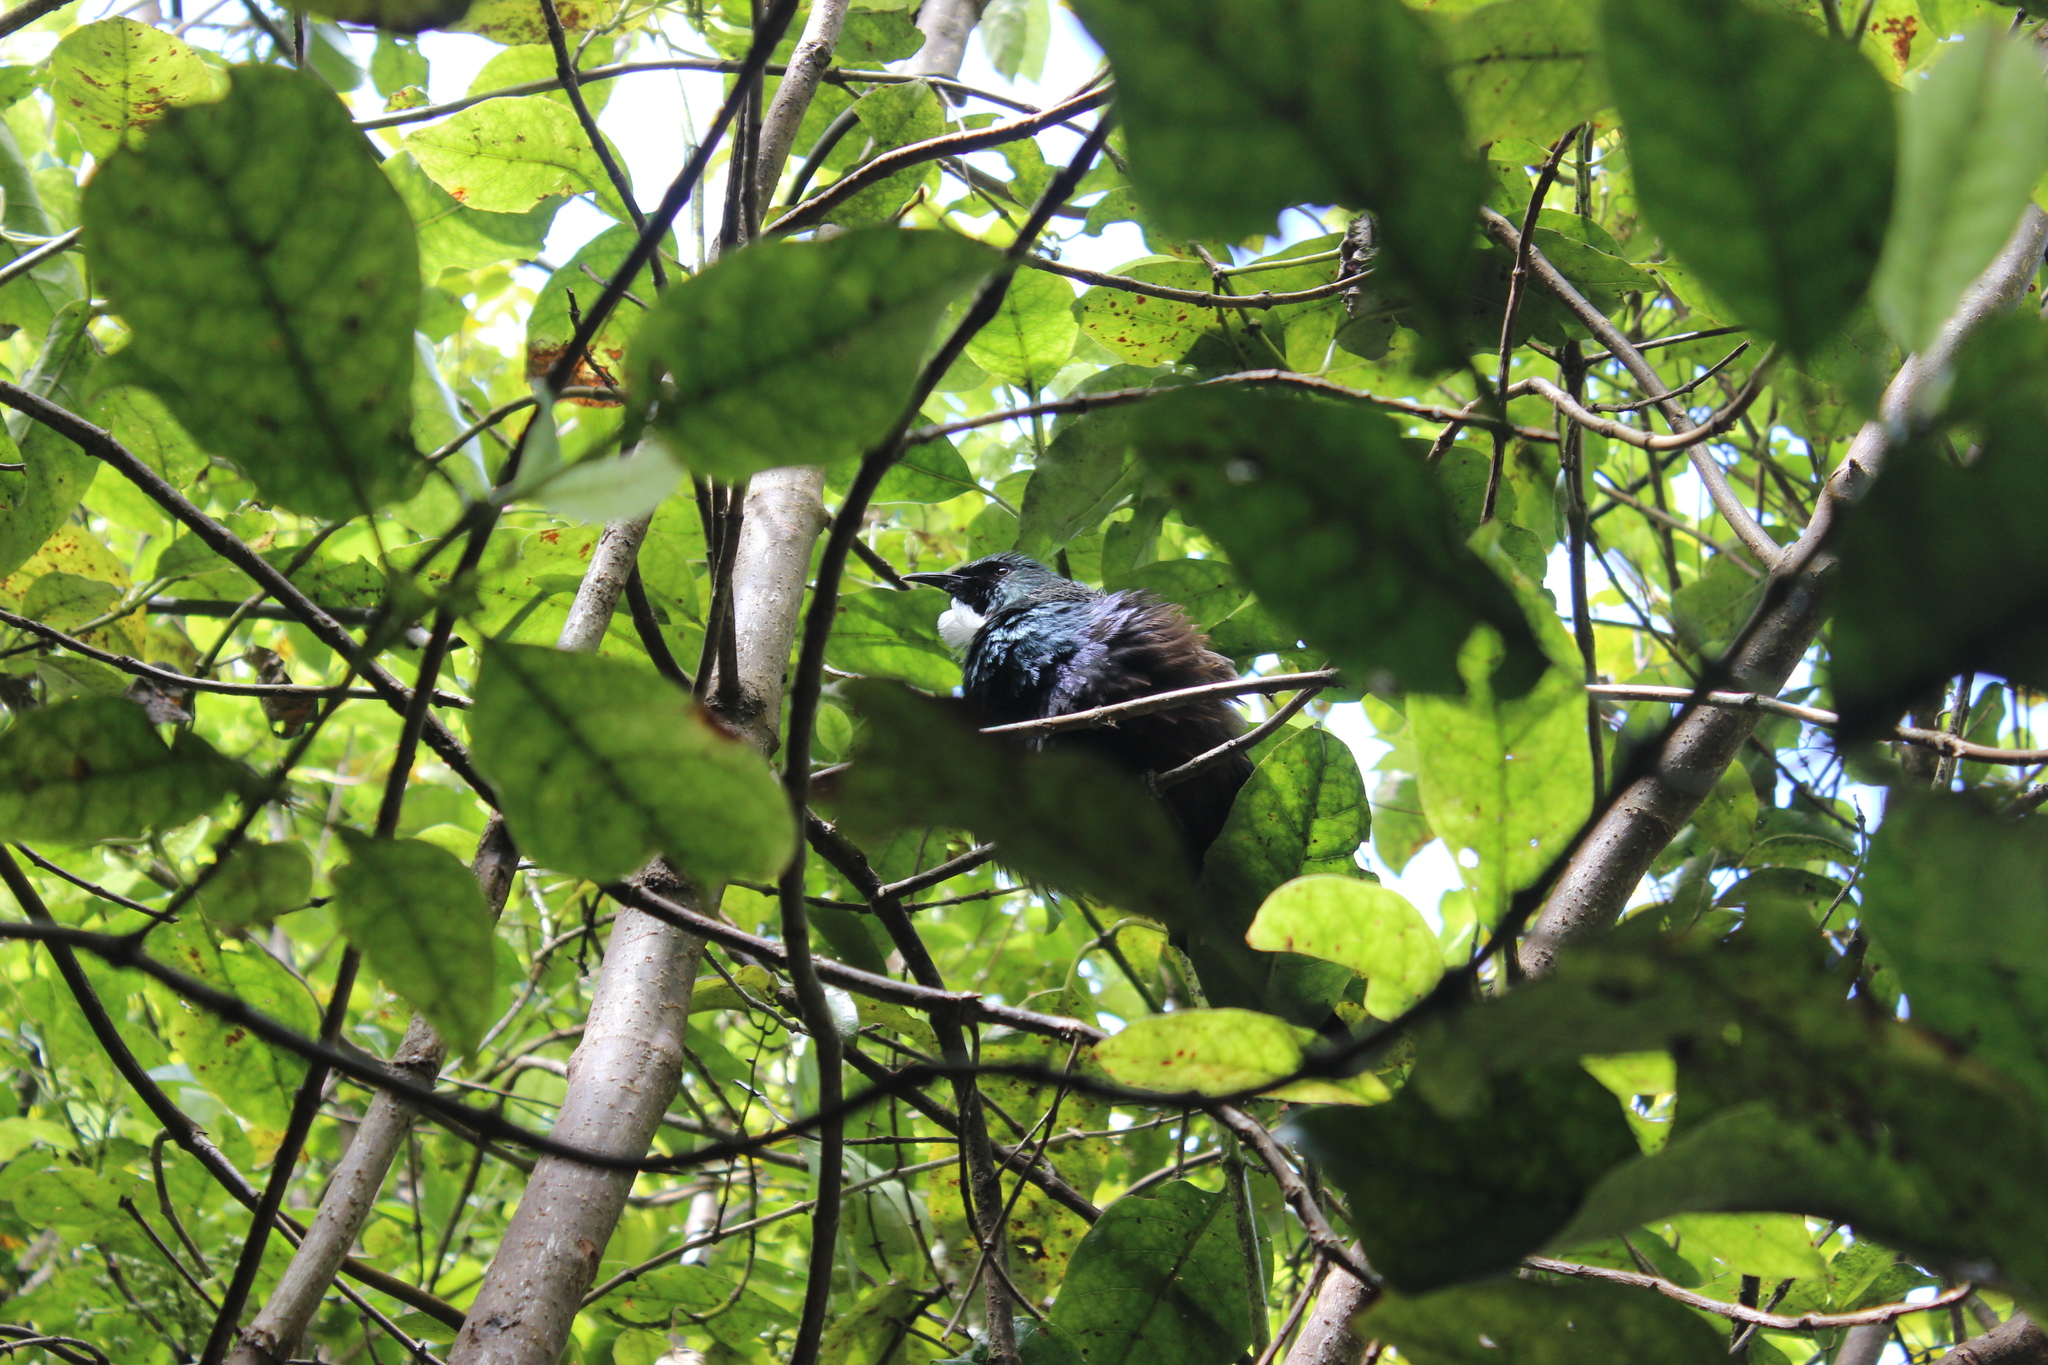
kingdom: Animalia
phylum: Chordata
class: Aves
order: Passeriformes
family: Meliphagidae
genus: Prosthemadera
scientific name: Prosthemadera novaeseelandiae
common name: Tui
